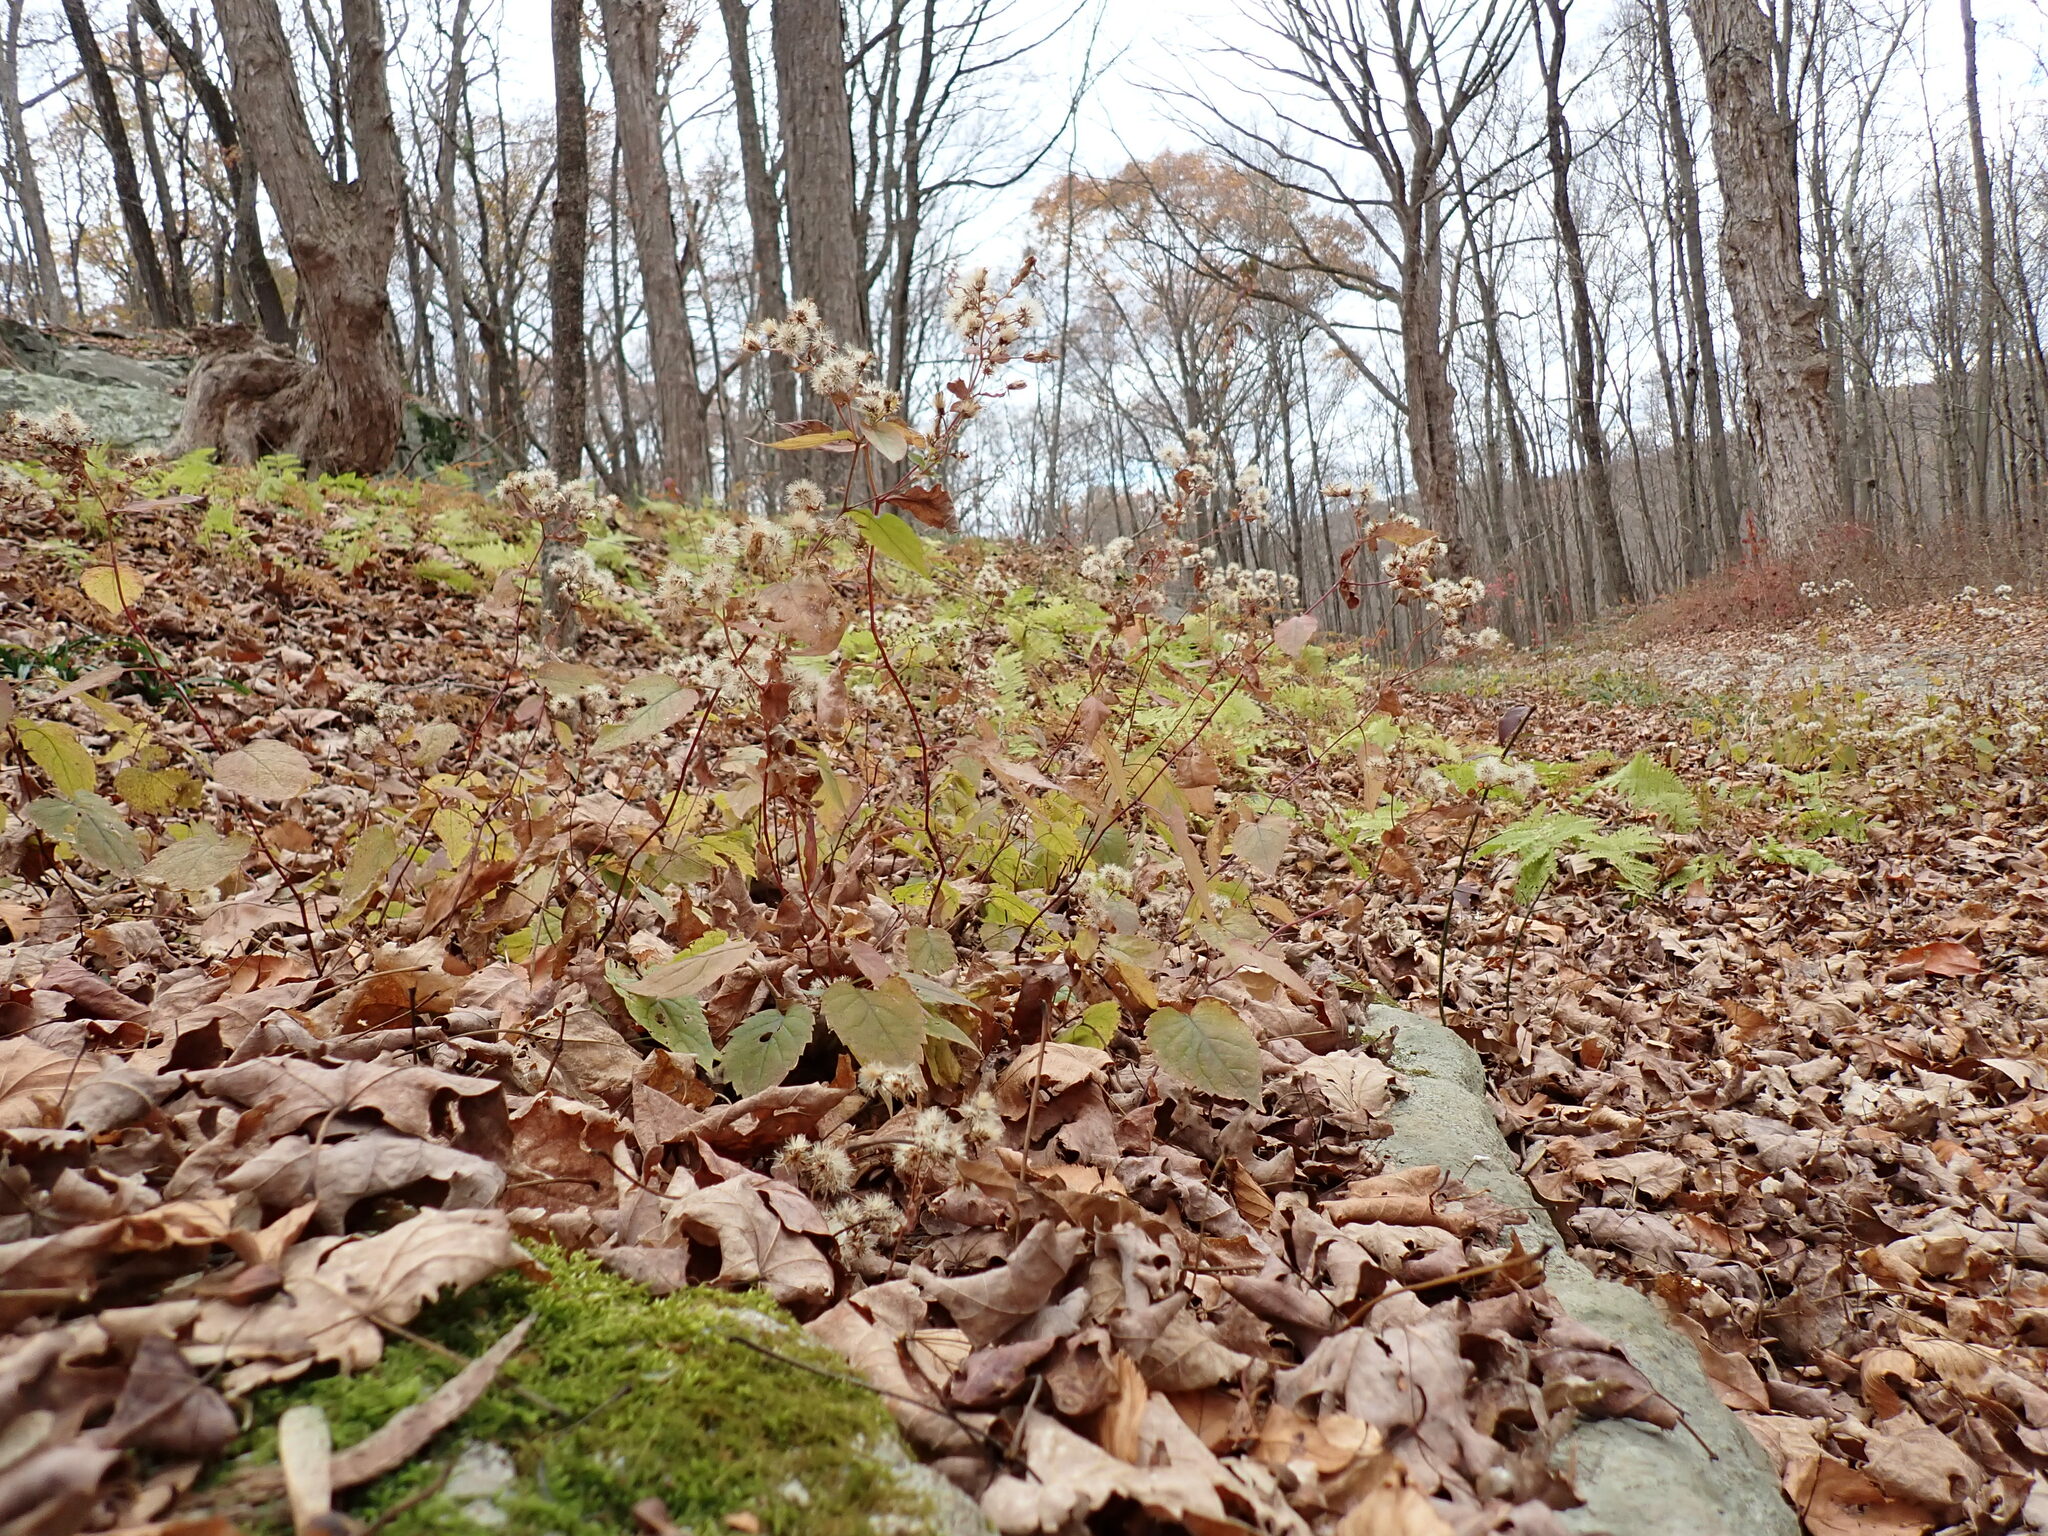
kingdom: Plantae
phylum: Tracheophyta
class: Magnoliopsida
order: Asterales
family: Asteraceae
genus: Eurybia
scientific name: Eurybia divaricata
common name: White wood aster
